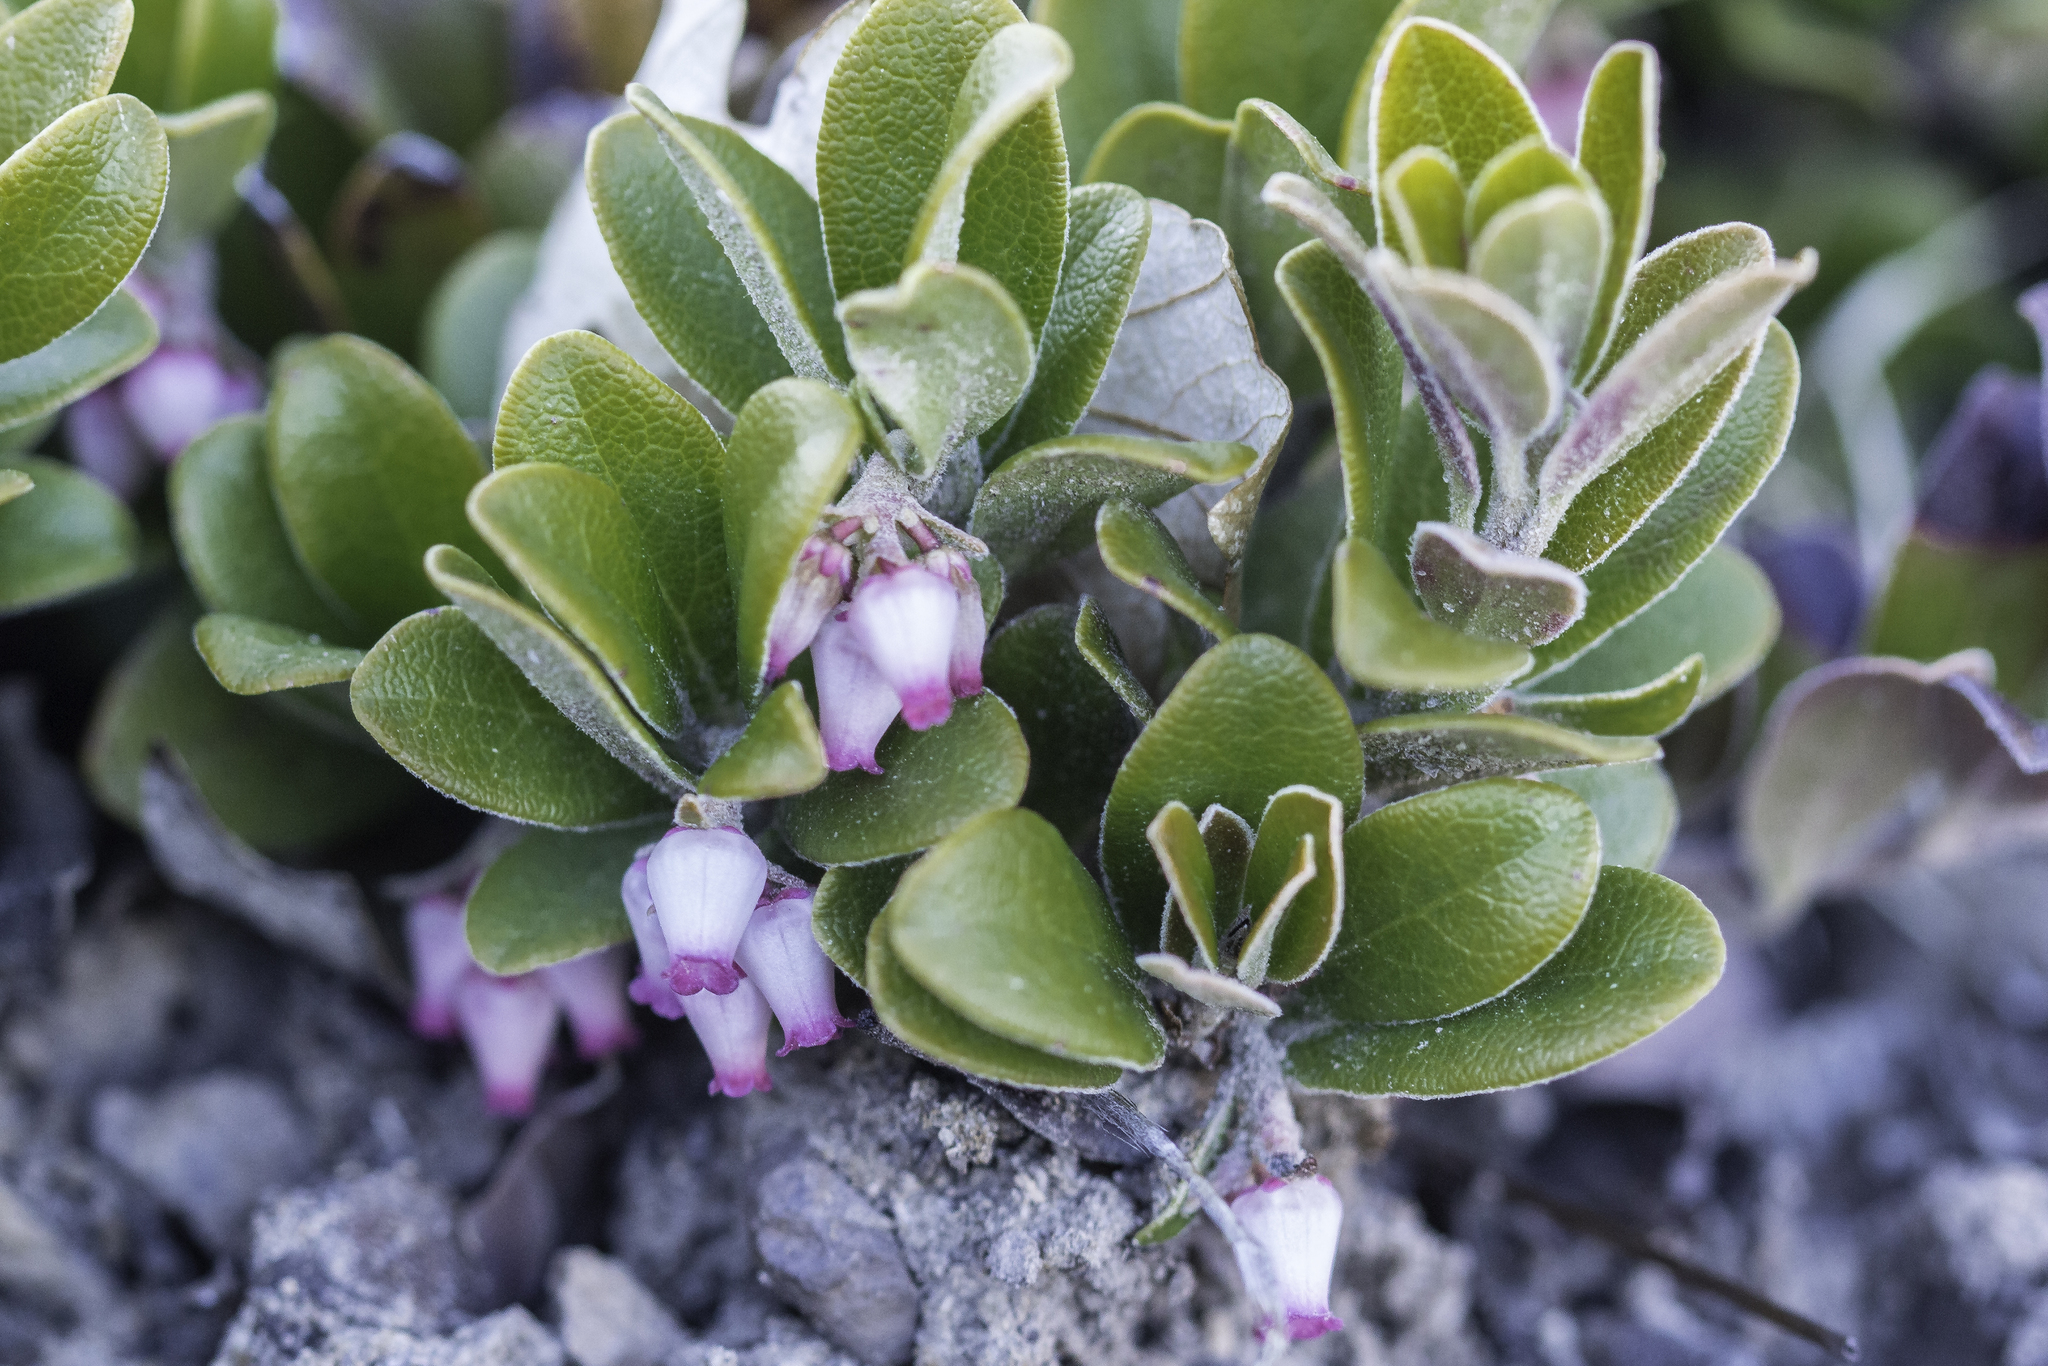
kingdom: Plantae
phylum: Tracheophyta
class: Magnoliopsida
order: Ericales
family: Ericaceae
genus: Arctostaphylos
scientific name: Arctostaphylos uva-ursi
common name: Bearberry
